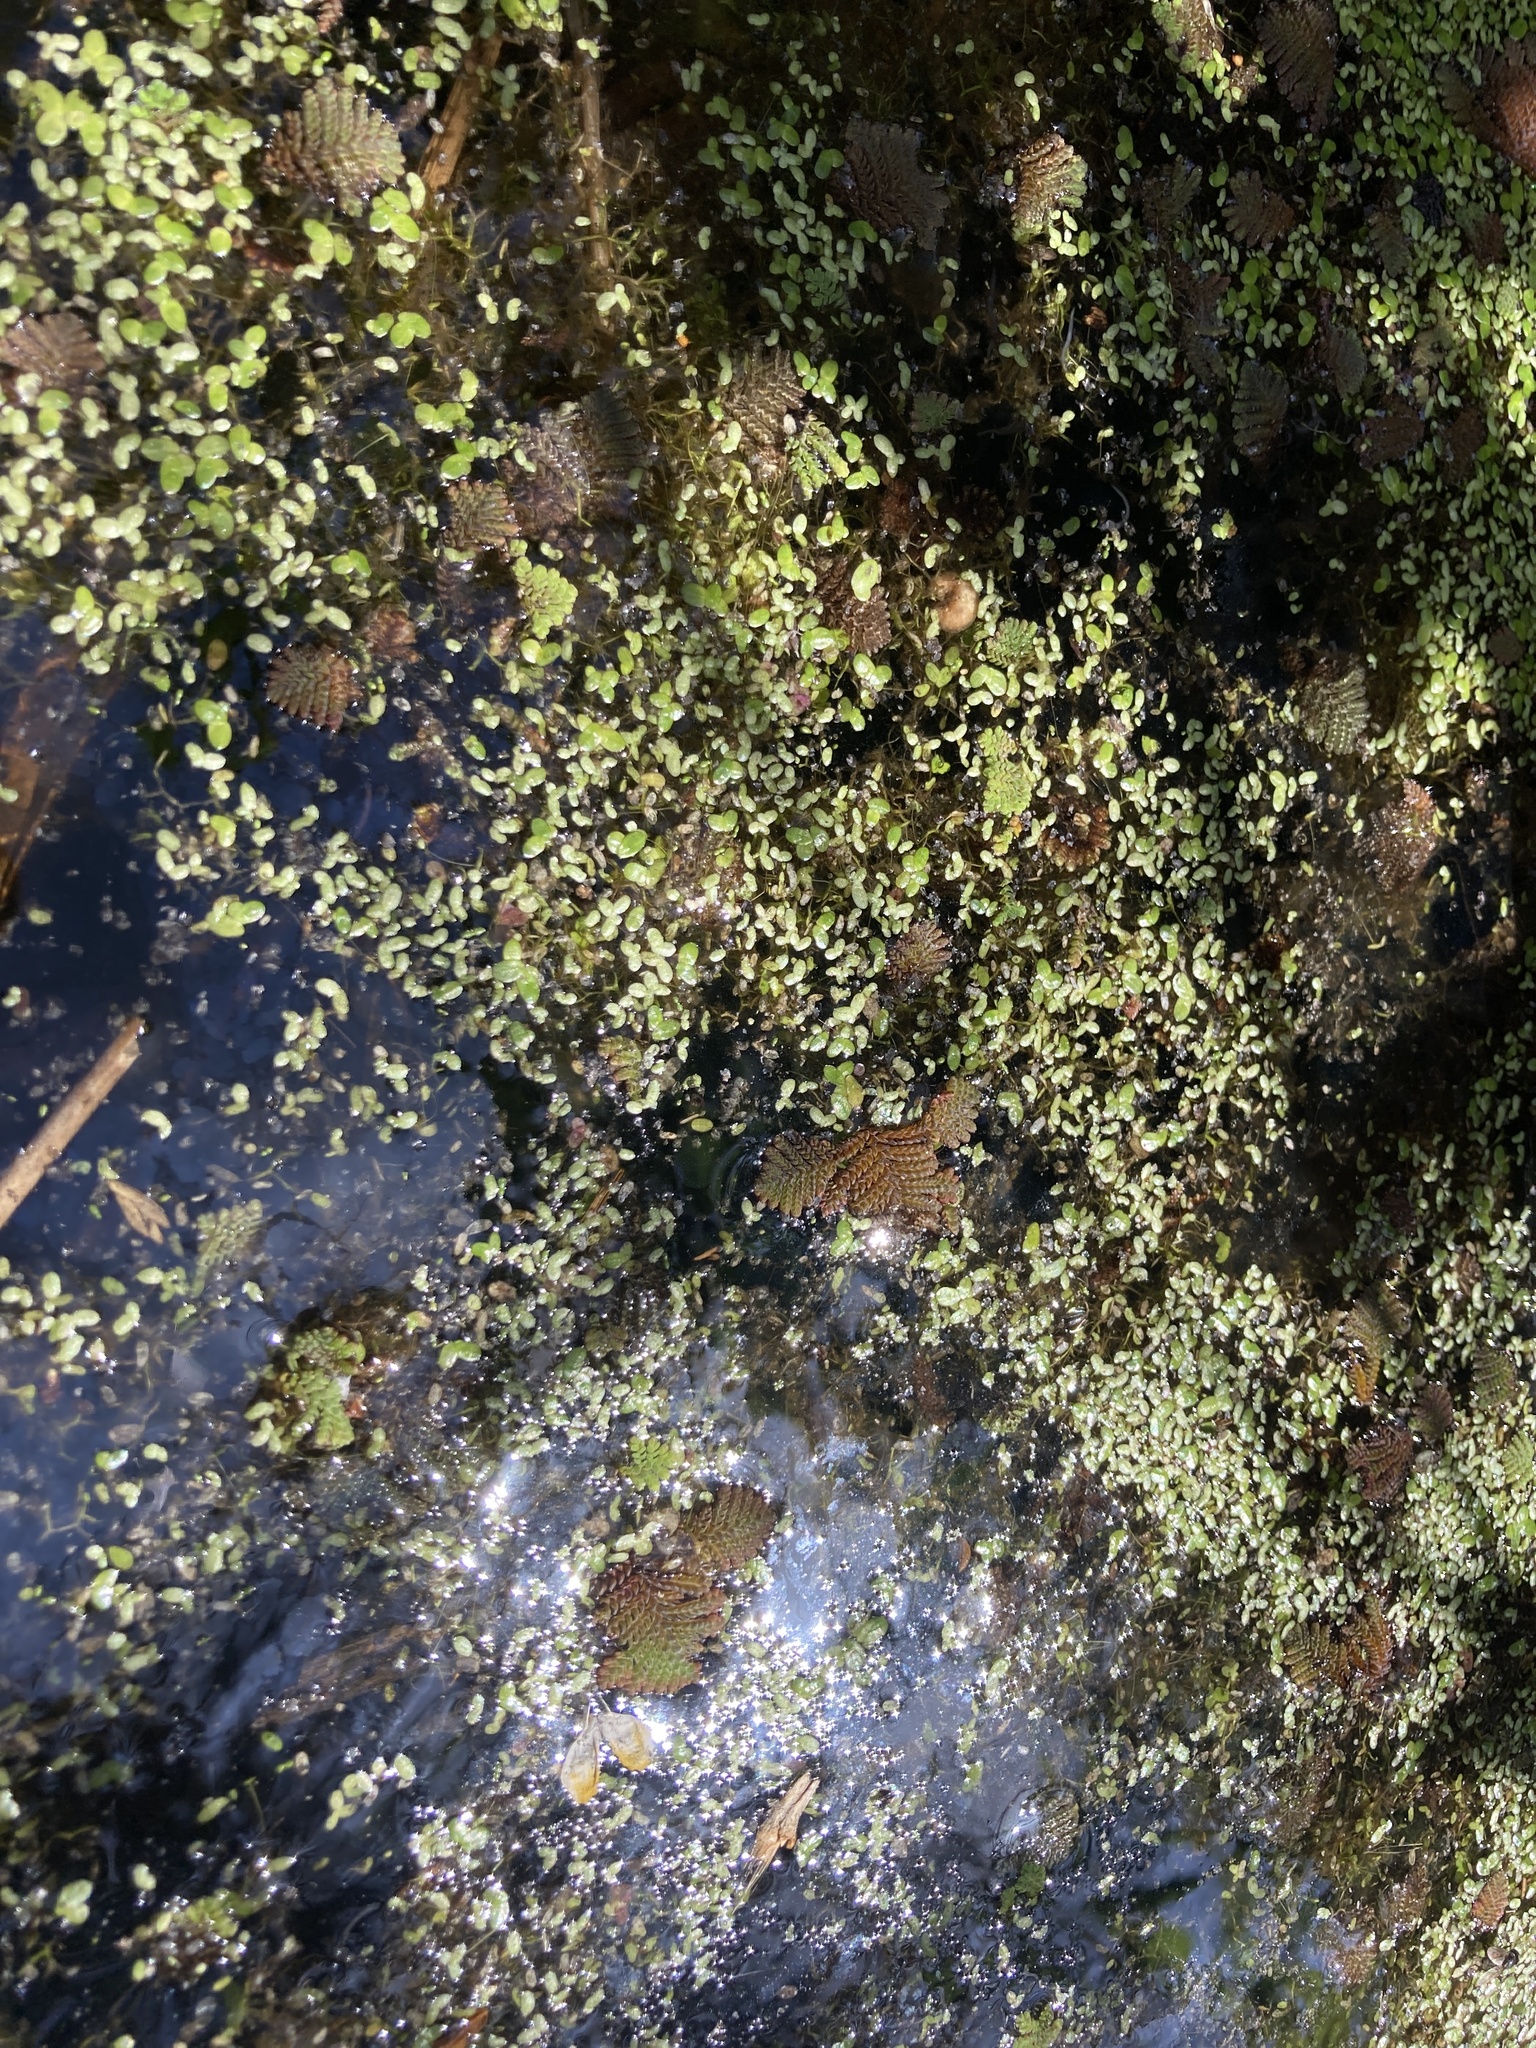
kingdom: Plantae
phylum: Tracheophyta
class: Polypodiopsida
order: Salviniales
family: Salviniaceae
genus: Azolla
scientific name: Azolla pinnata
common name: Ferny azolla
